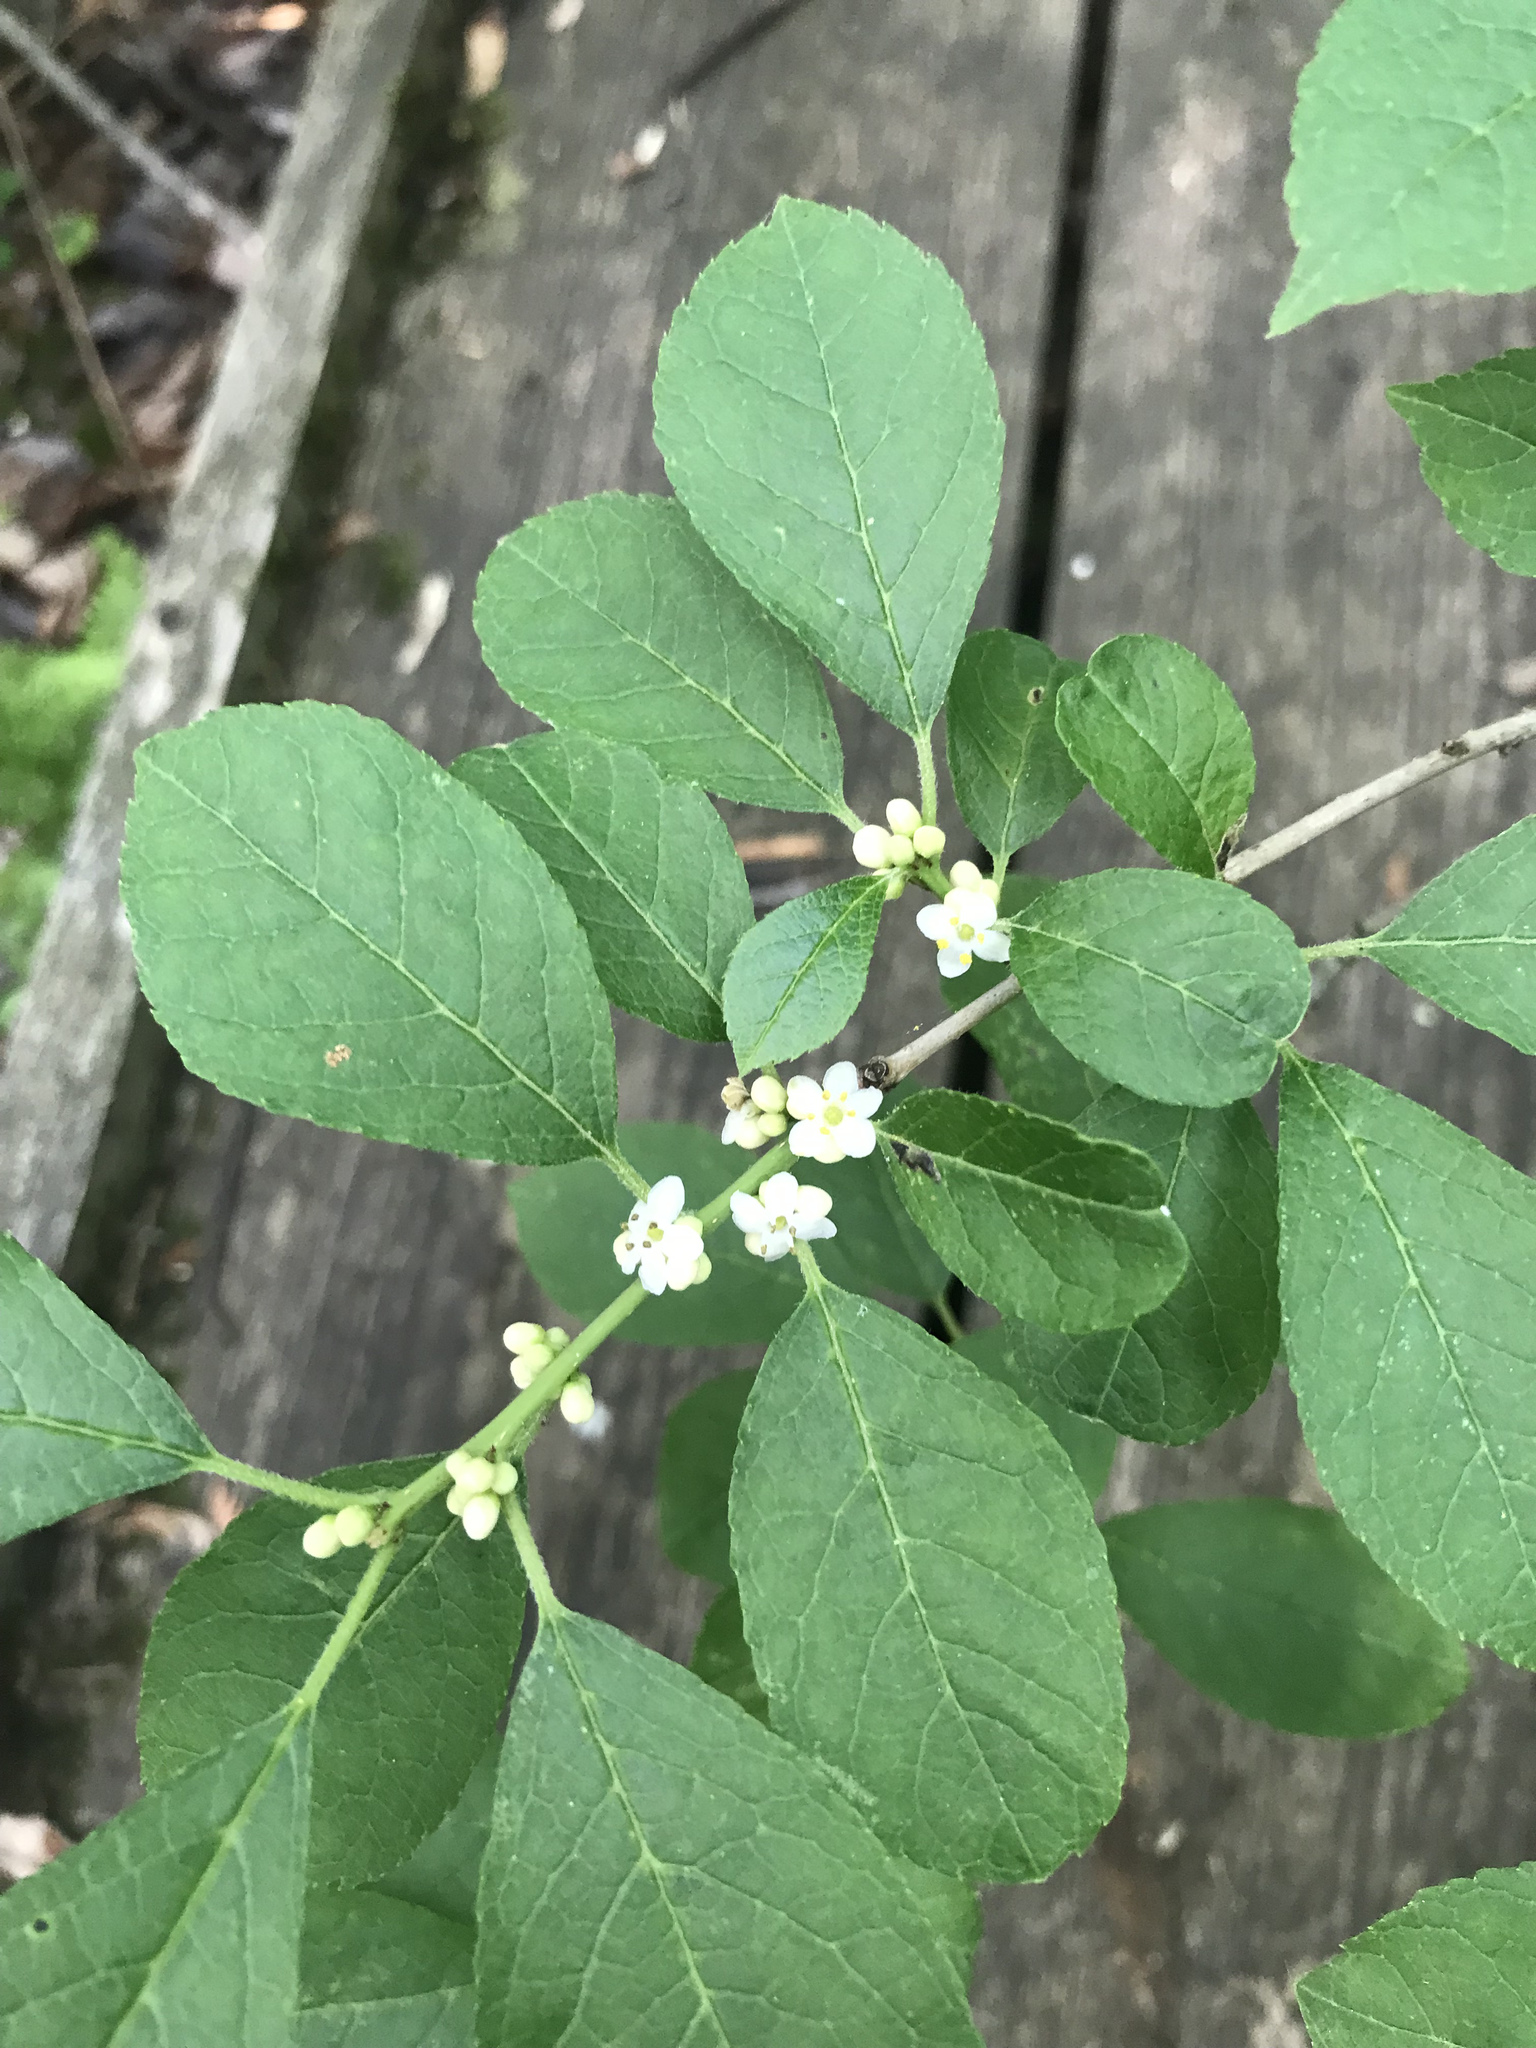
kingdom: Plantae
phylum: Tracheophyta
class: Magnoliopsida
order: Aquifoliales
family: Aquifoliaceae
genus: Ilex
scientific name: Ilex verticillata
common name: Virginia winterberry
